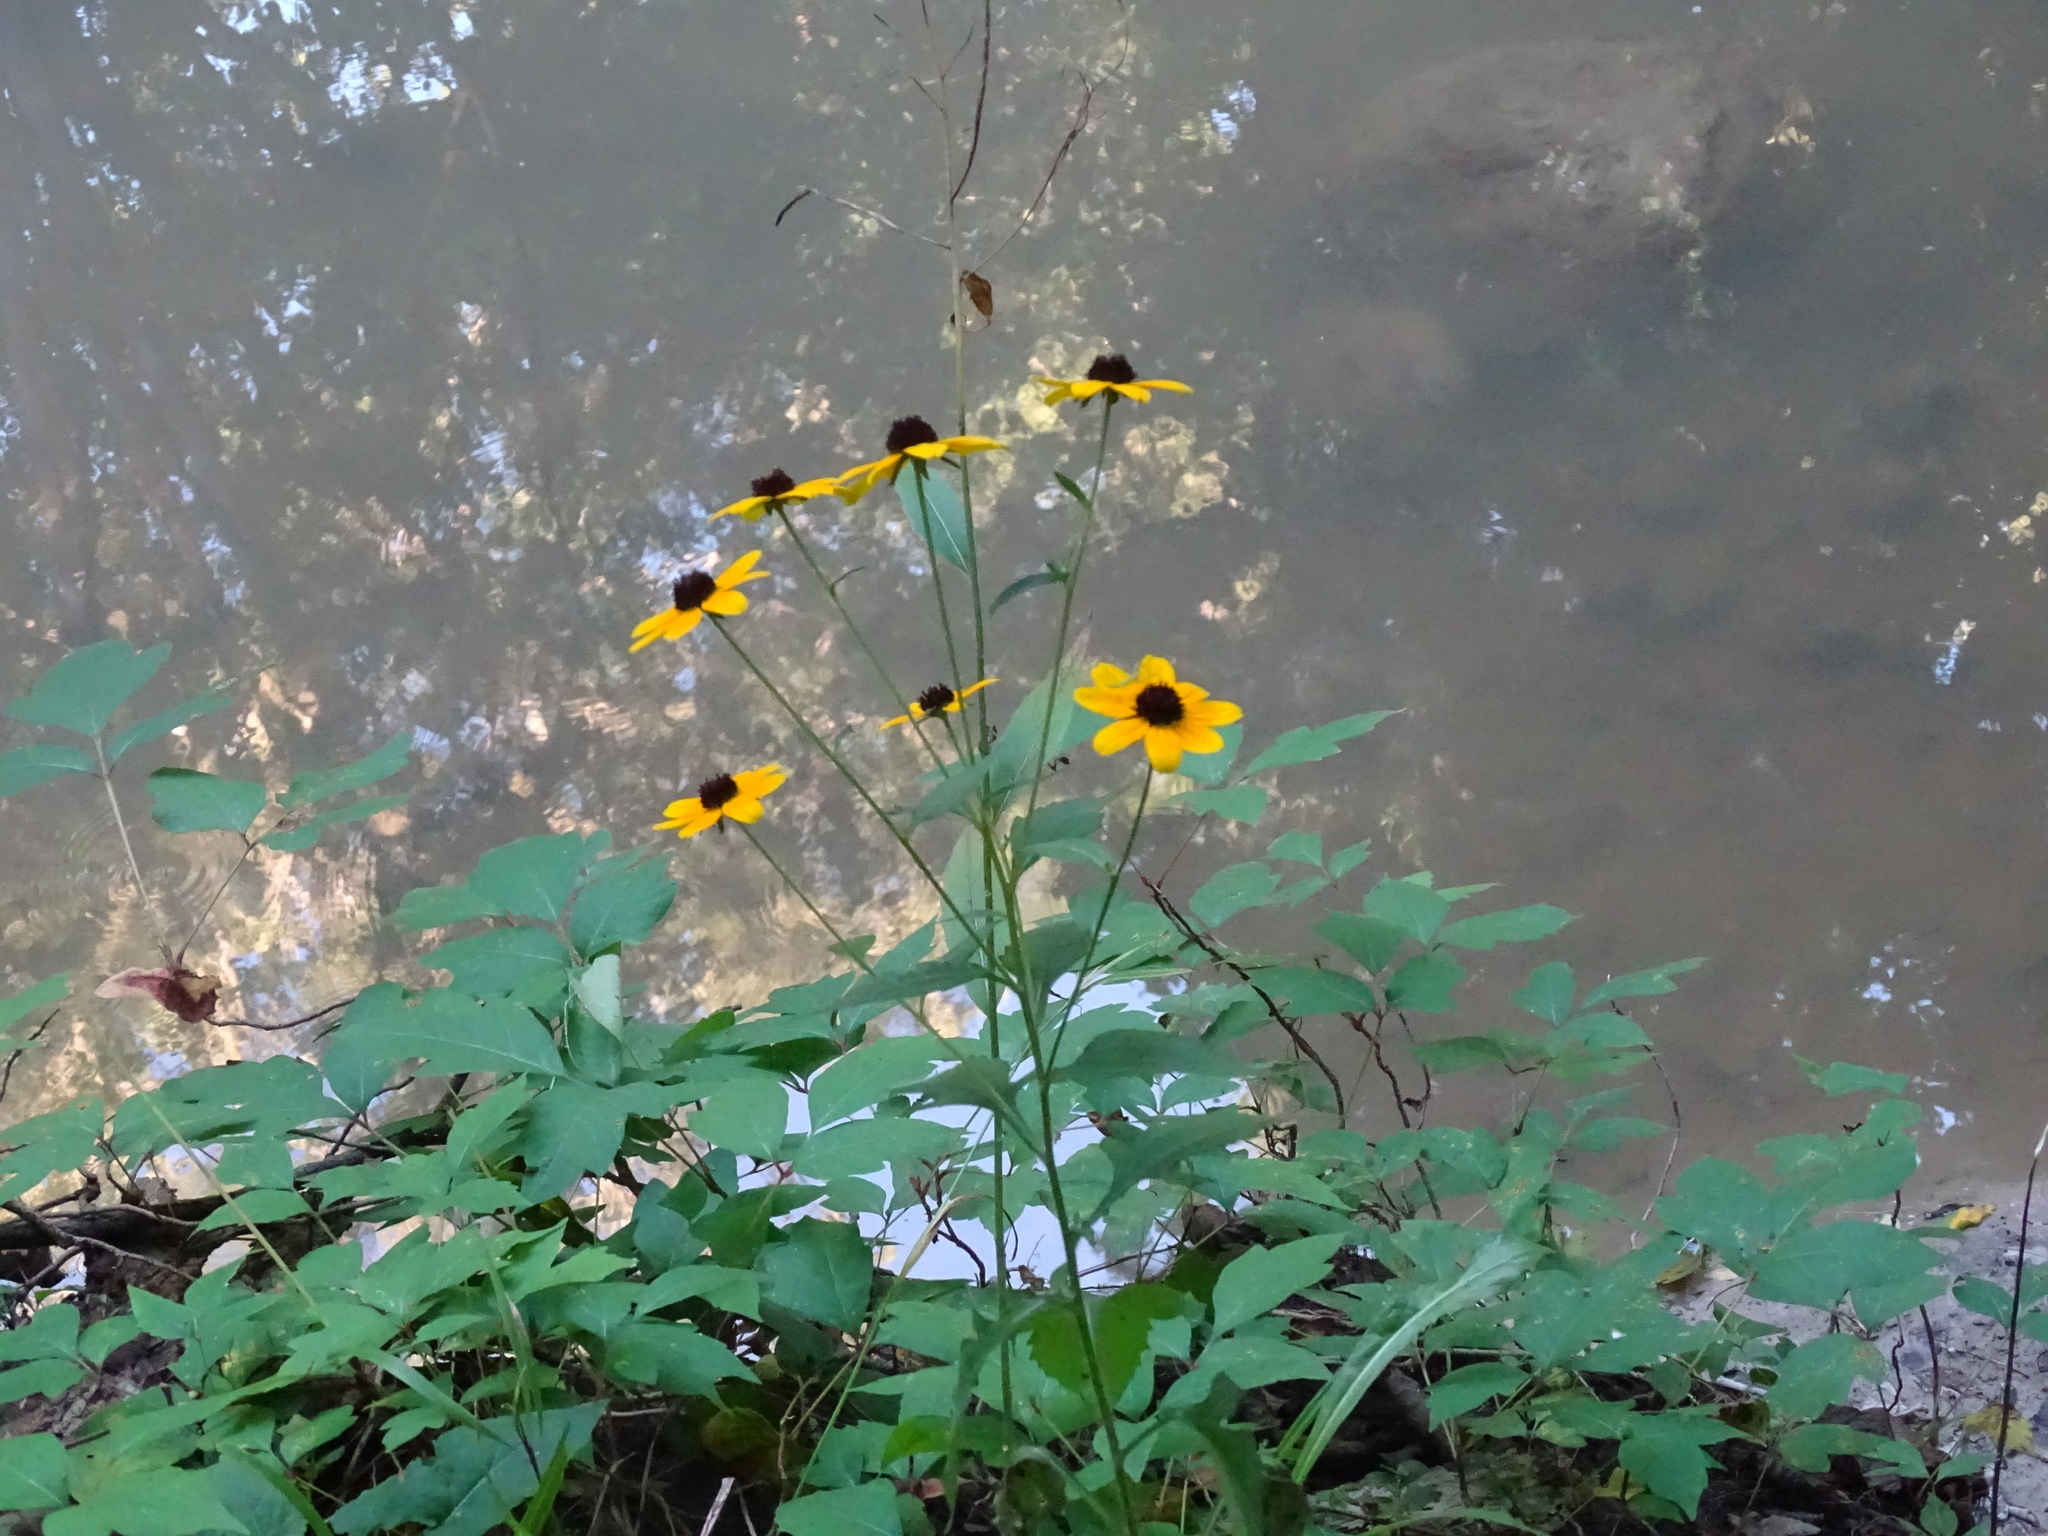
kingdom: Plantae
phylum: Tracheophyta
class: Magnoliopsida
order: Asterales
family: Asteraceae
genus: Rudbeckia
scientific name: Rudbeckia triloba
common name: Thin-leaved coneflower
